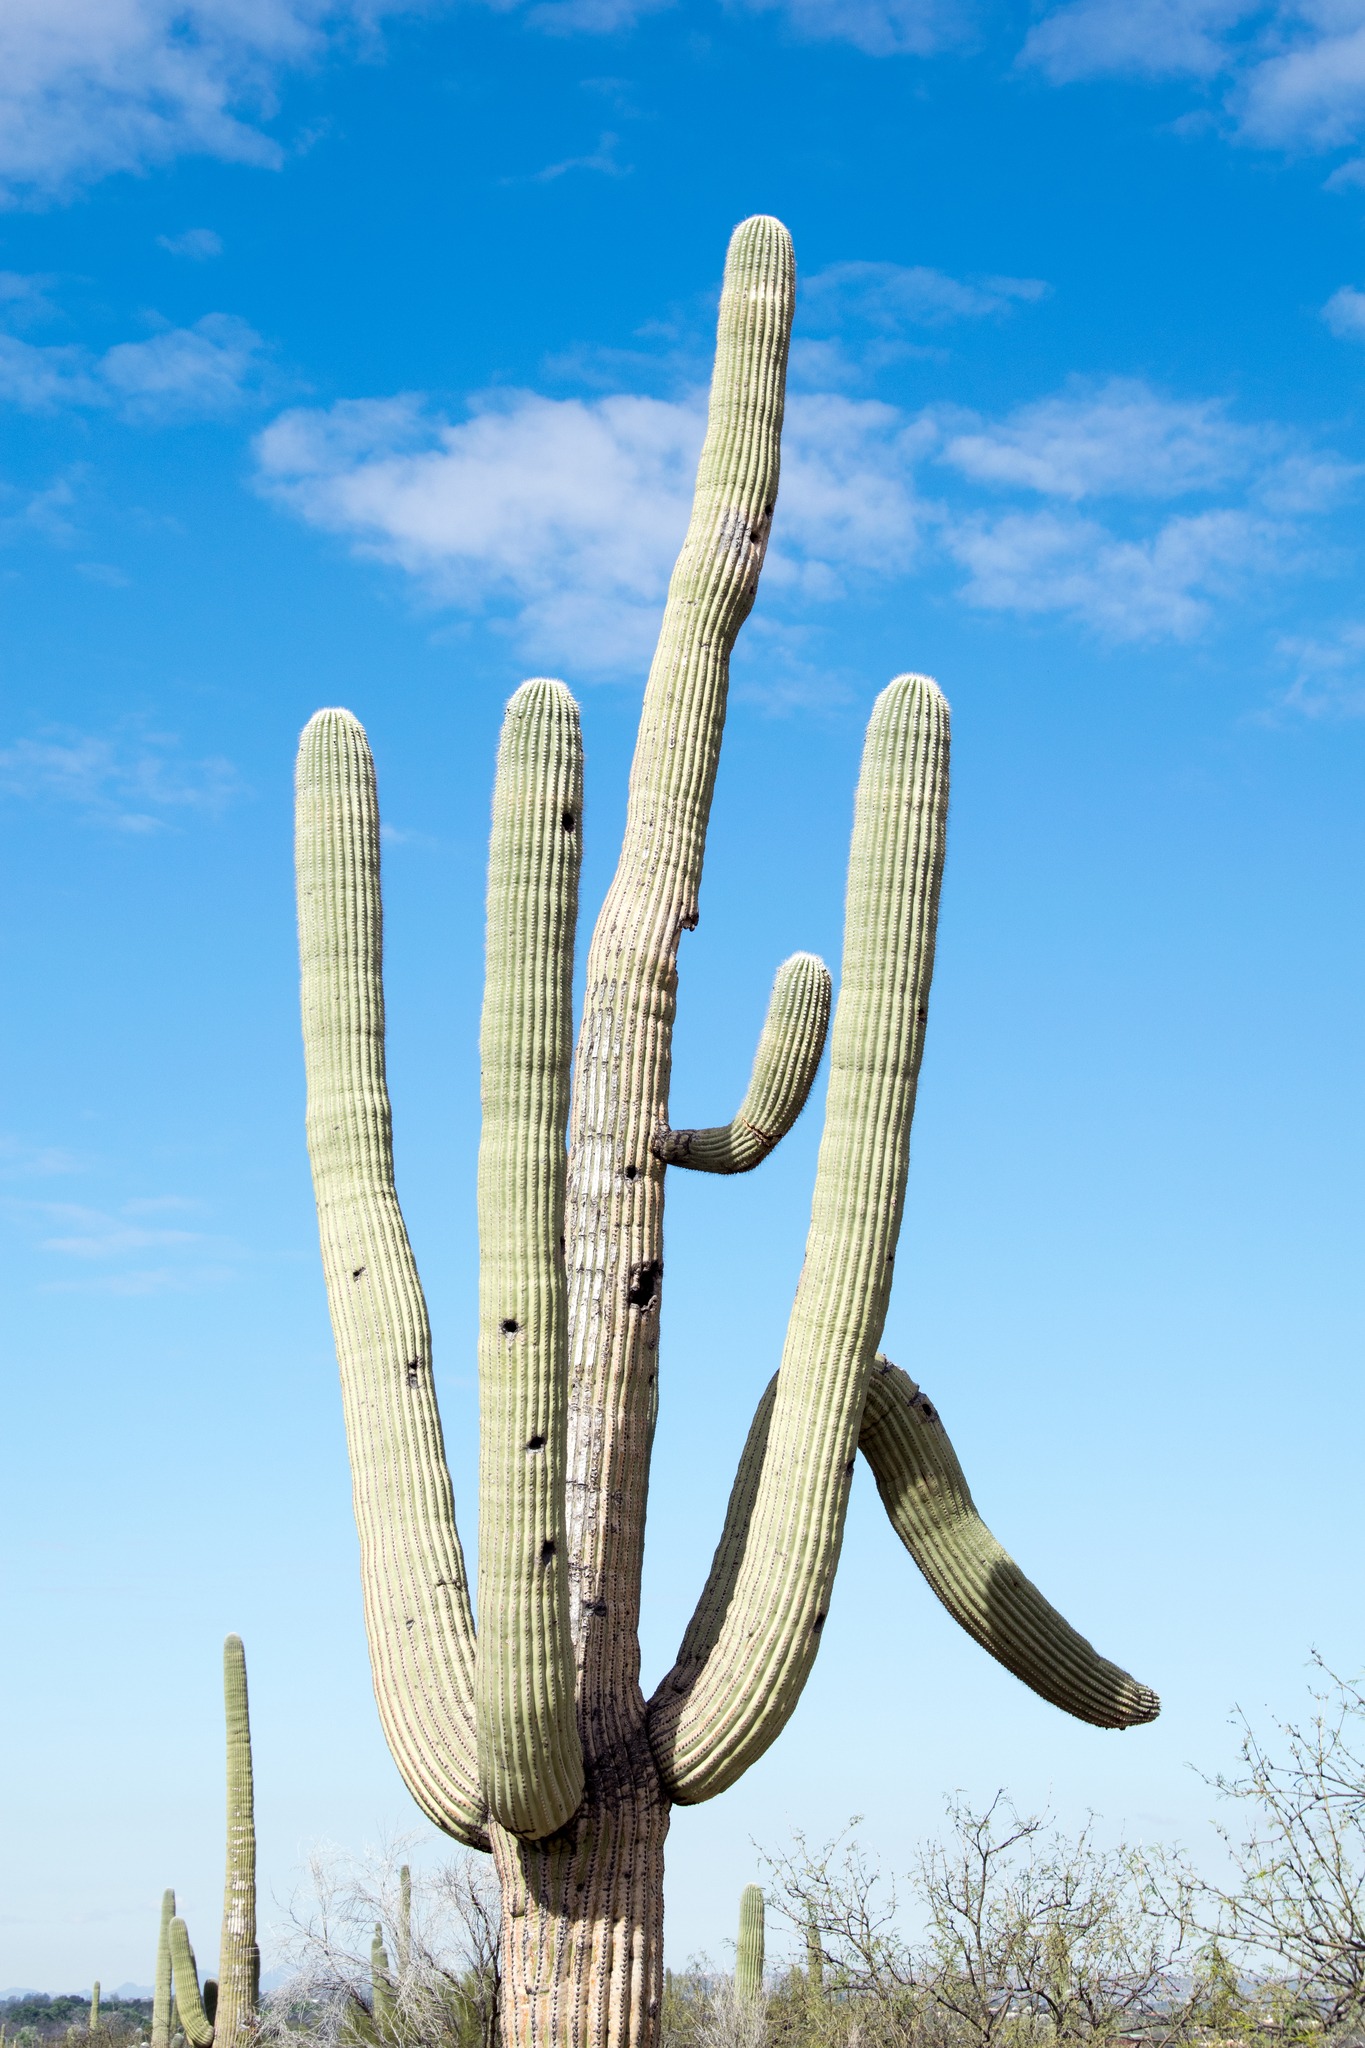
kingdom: Plantae
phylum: Tracheophyta
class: Magnoliopsida
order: Caryophyllales
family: Cactaceae
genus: Carnegiea
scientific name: Carnegiea gigantea
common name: Saguaro
